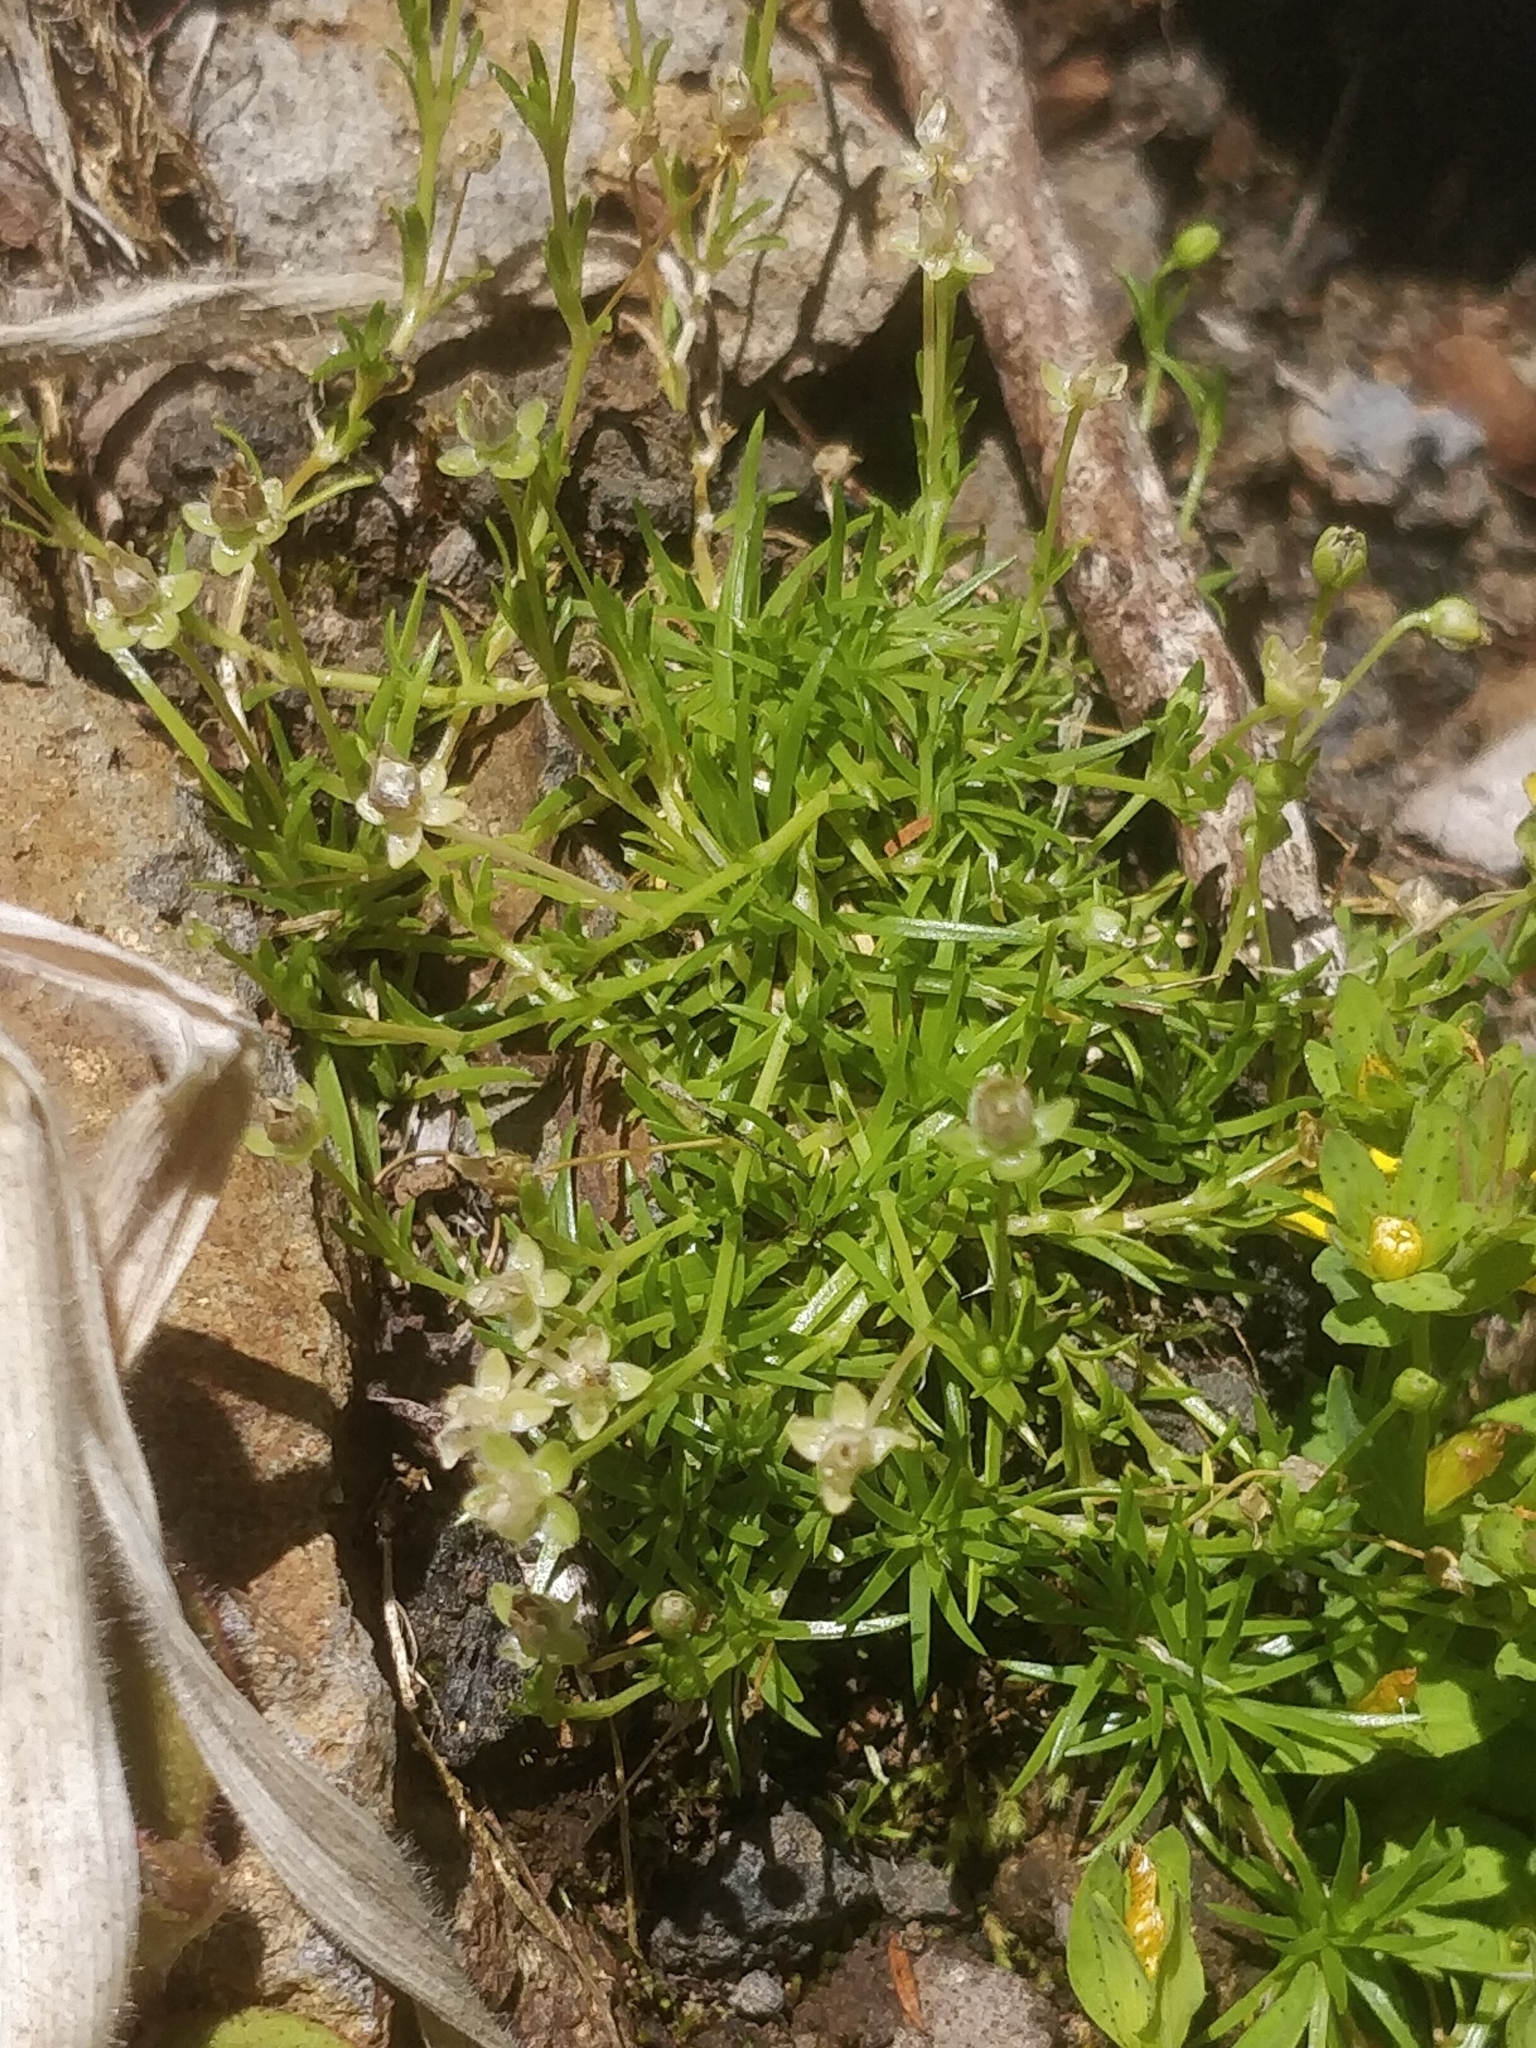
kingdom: Plantae
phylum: Tracheophyta
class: Magnoliopsida
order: Caryophyllales
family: Caryophyllaceae
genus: Sagina
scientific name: Sagina procumbens
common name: Procumbent pearlwort
